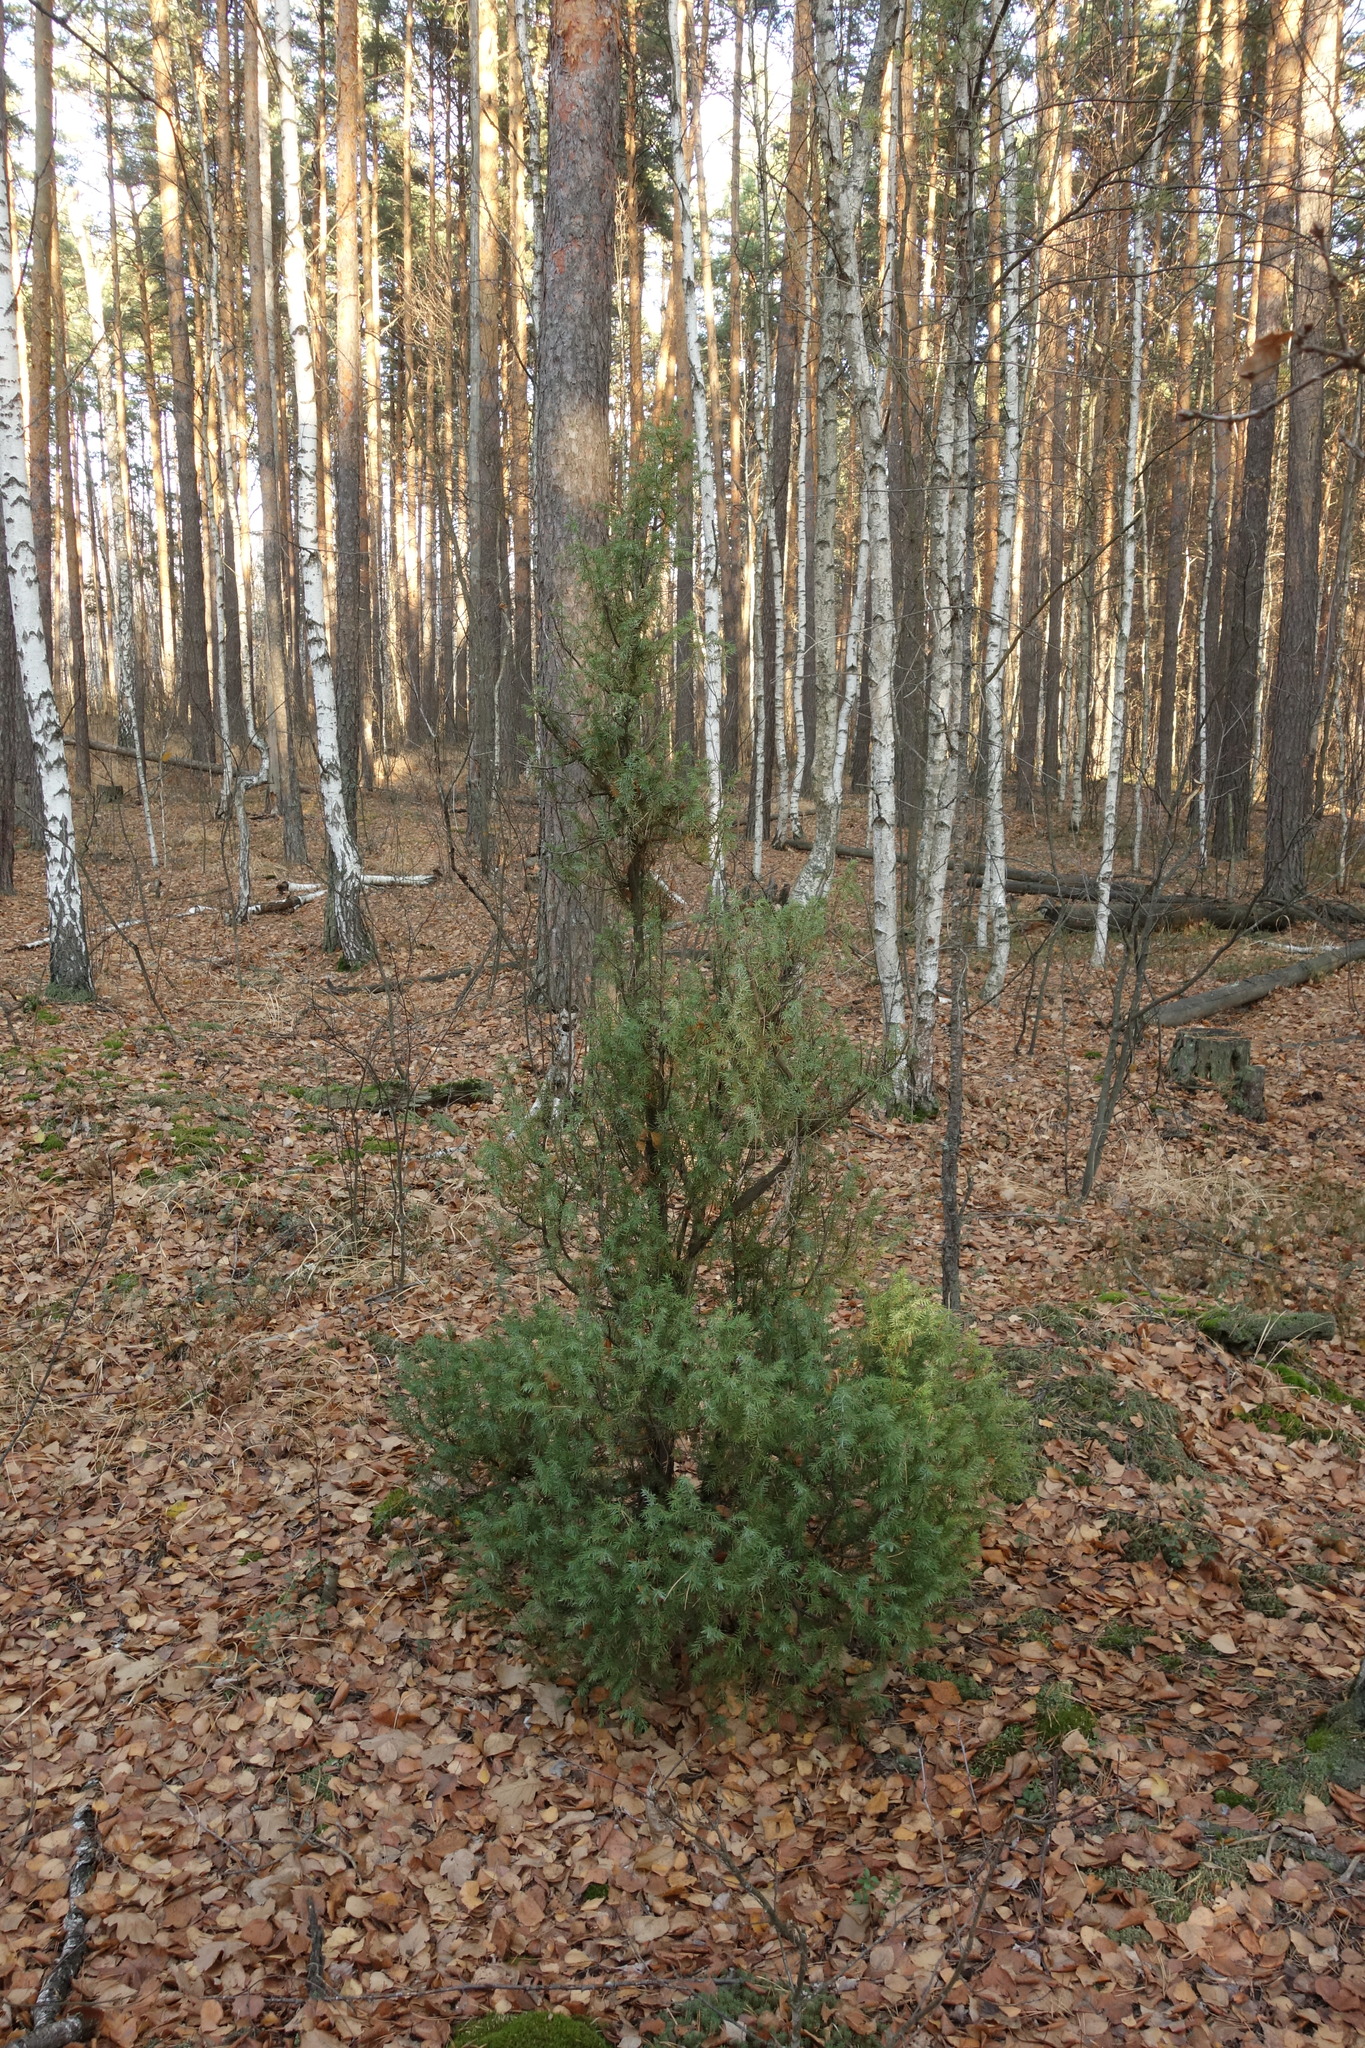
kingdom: Plantae
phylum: Tracheophyta
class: Pinopsida
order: Pinales
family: Cupressaceae
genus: Juniperus
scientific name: Juniperus communis
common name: Common juniper
